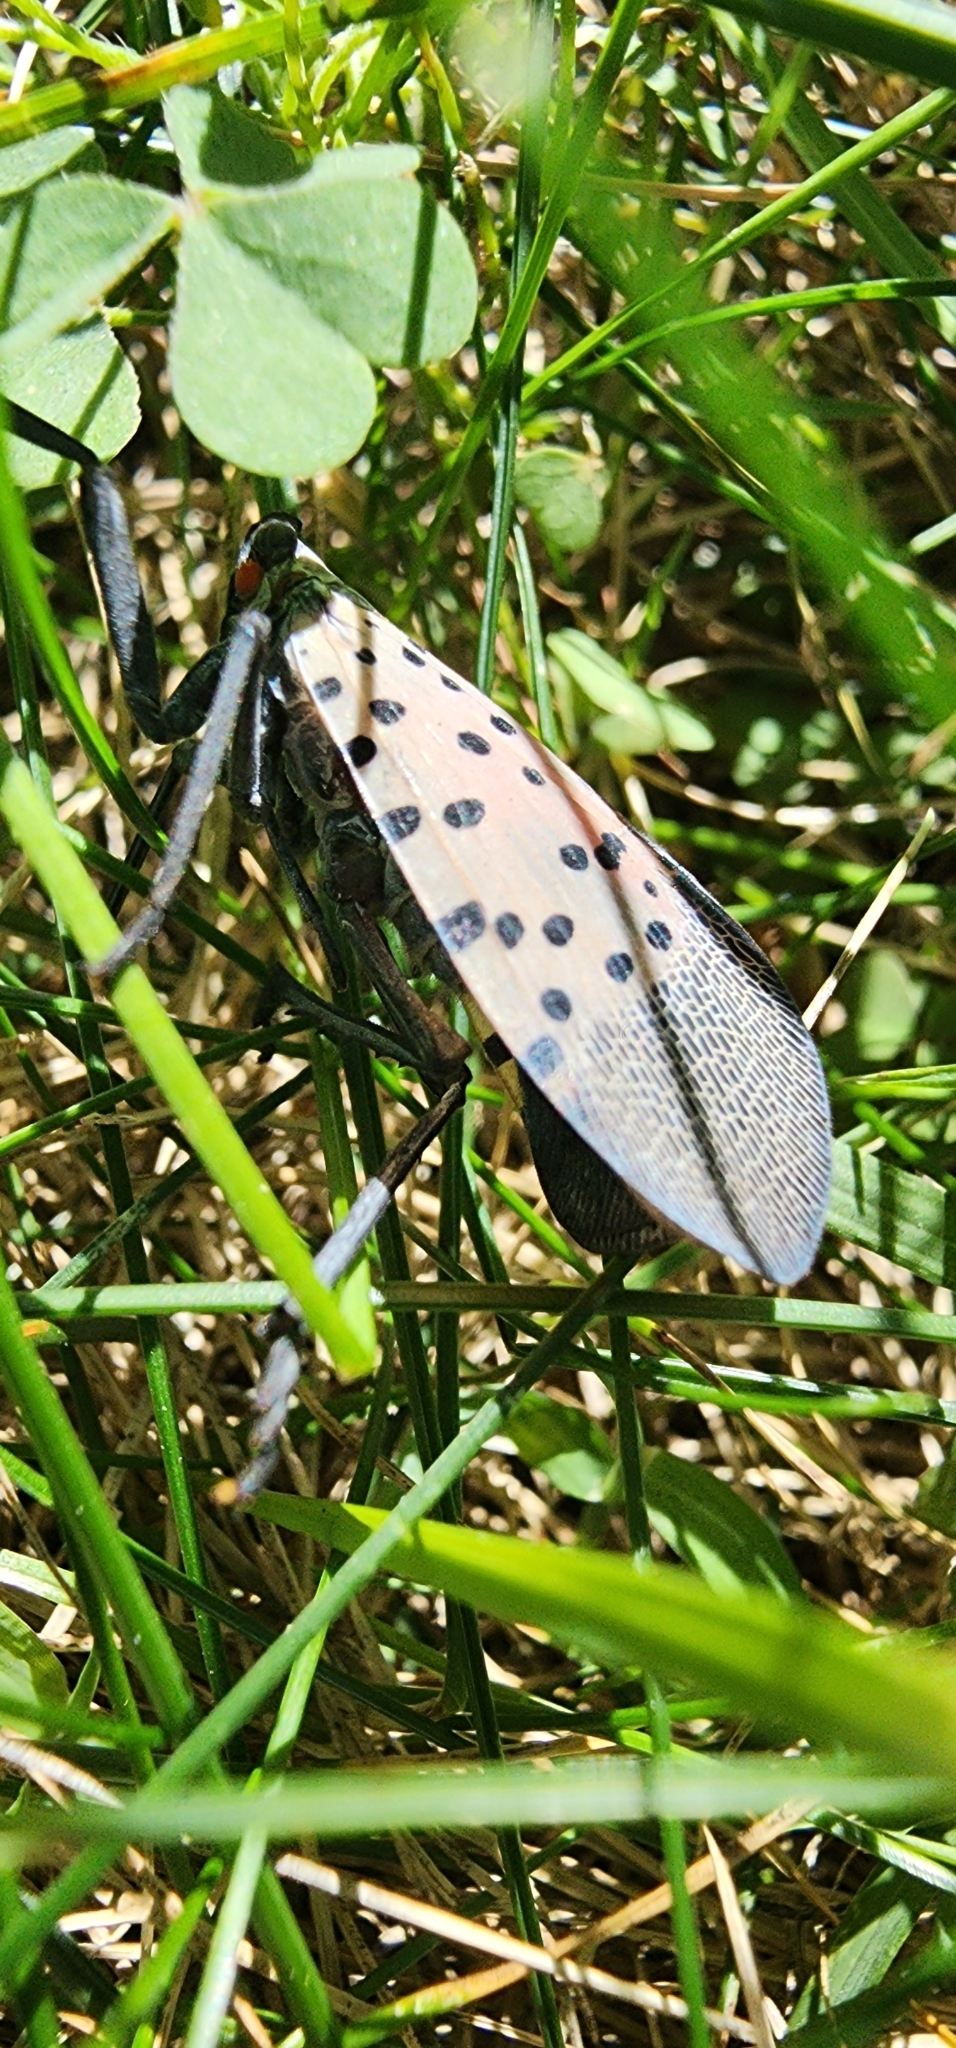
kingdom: Animalia
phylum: Arthropoda
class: Insecta
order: Hemiptera
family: Fulgoridae
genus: Lycorma
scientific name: Lycorma delicatula
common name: Spotted lanternfly
